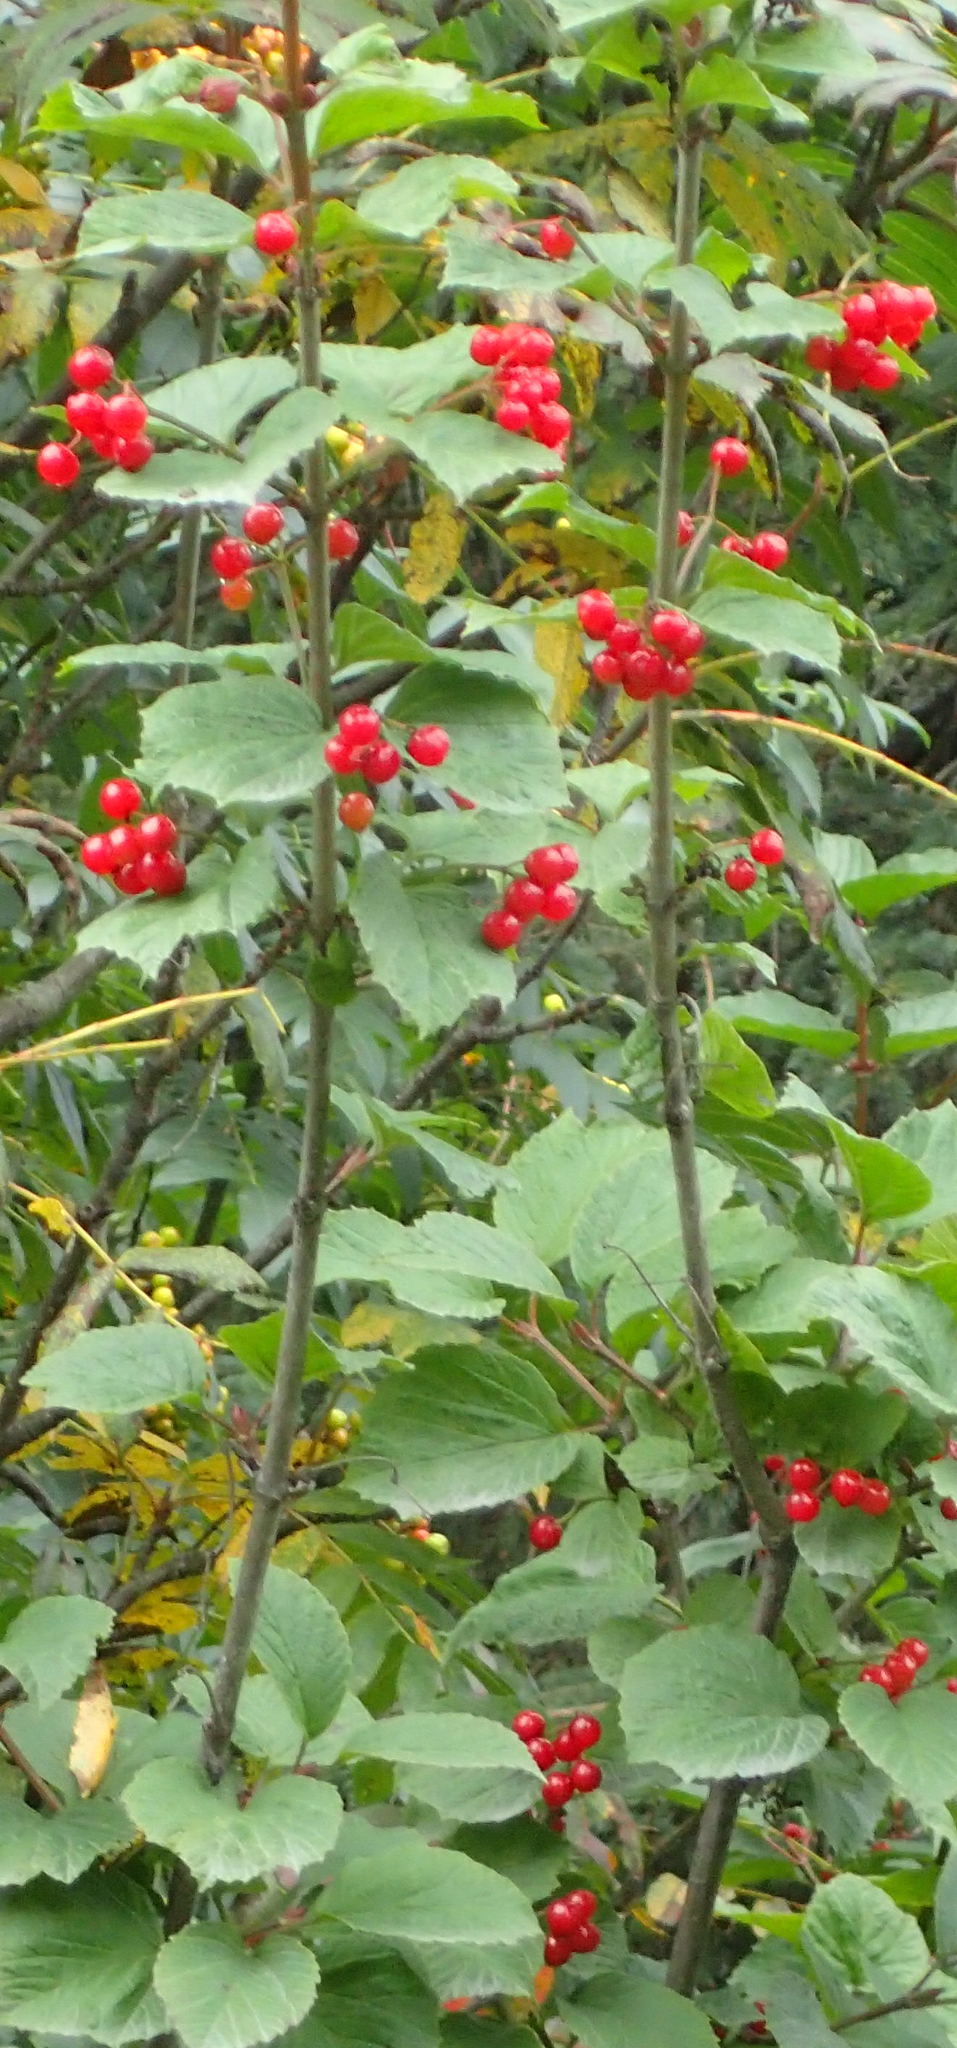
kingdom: Plantae
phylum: Tracheophyta
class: Magnoliopsida
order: Dipsacales
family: Viburnaceae
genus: Viburnum
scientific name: Viburnum edule
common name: Mooseberry
